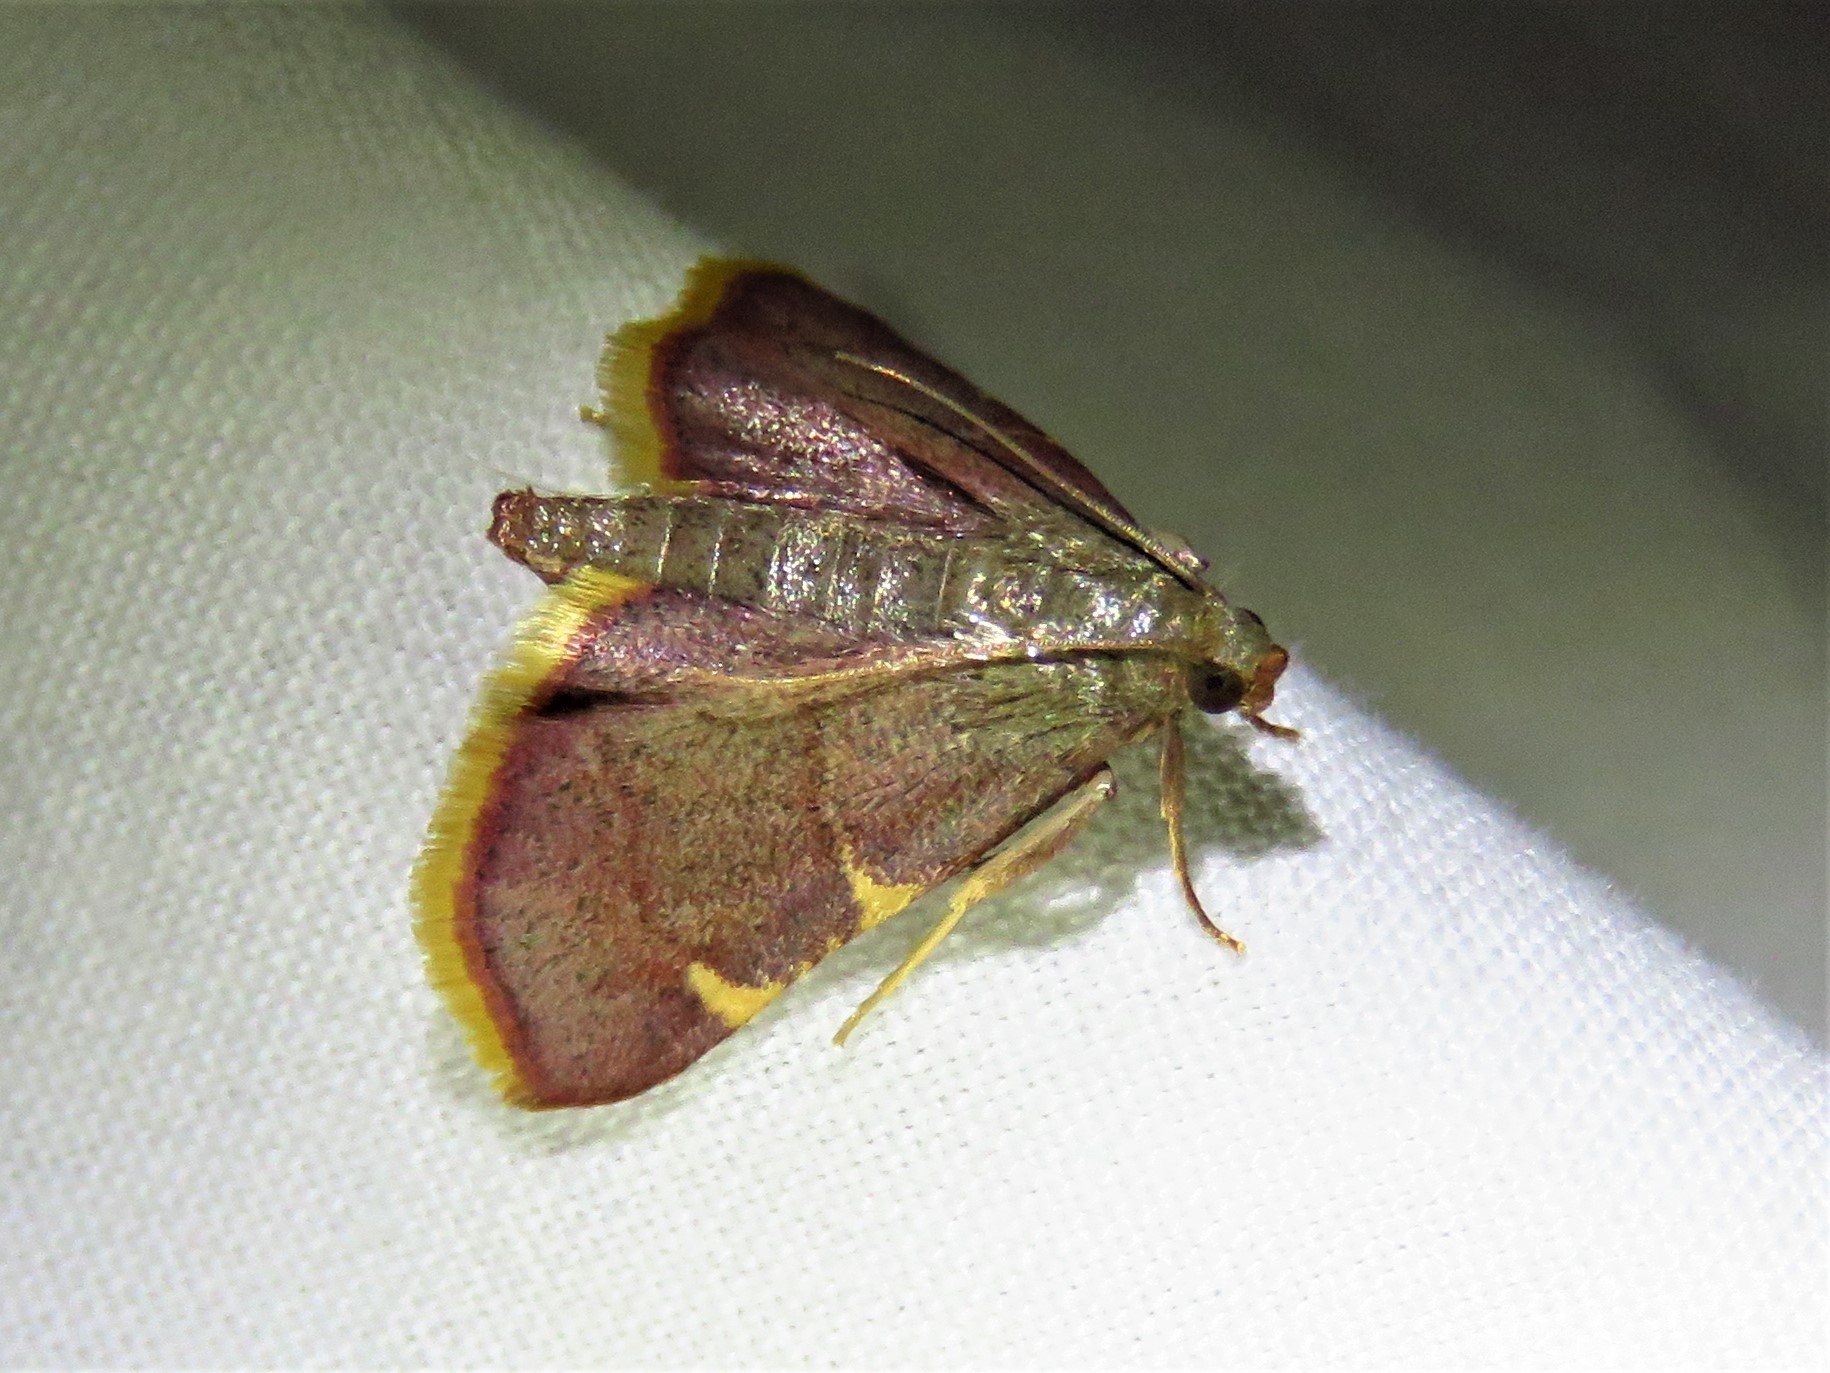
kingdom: Animalia
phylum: Arthropoda
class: Insecta
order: Lepidoptera
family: Pyralidae
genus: Hypsopygia
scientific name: Hypsopygia olinalis
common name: Yellow-fringed dolichomia moth
